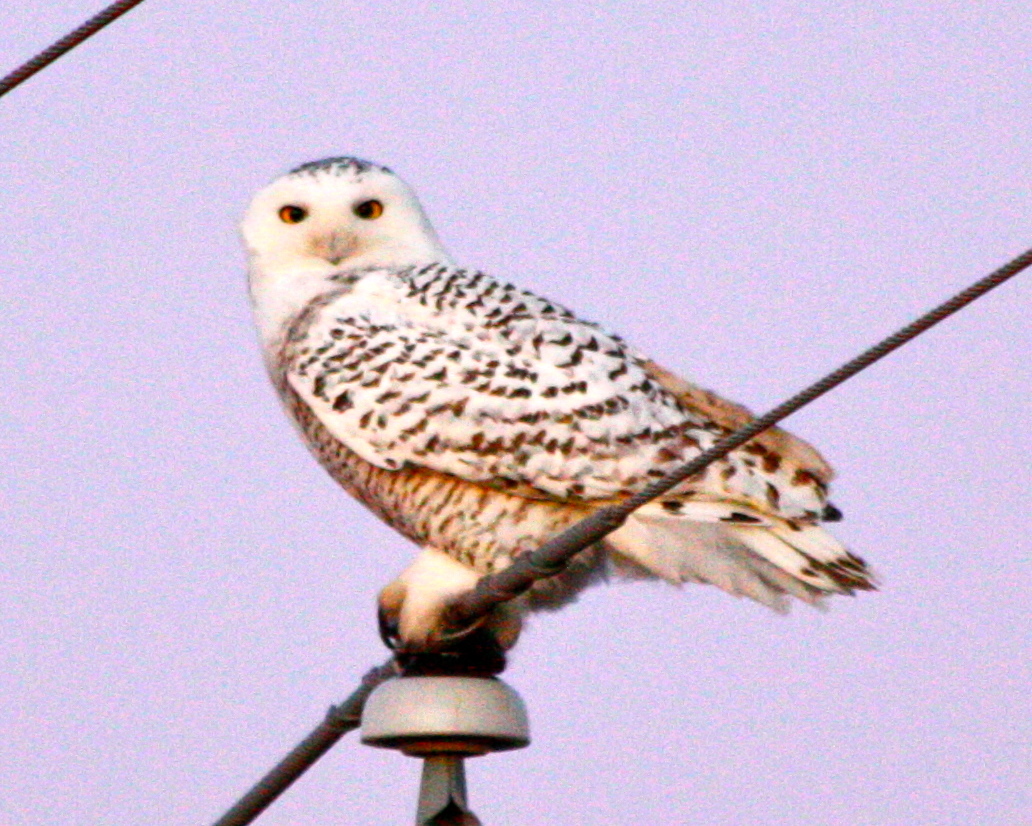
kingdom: Animalia
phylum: Chordata
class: Aves
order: Strigiformes
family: Strigidae
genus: Bubo
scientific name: Bubo scandiacus
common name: Snowy owl
